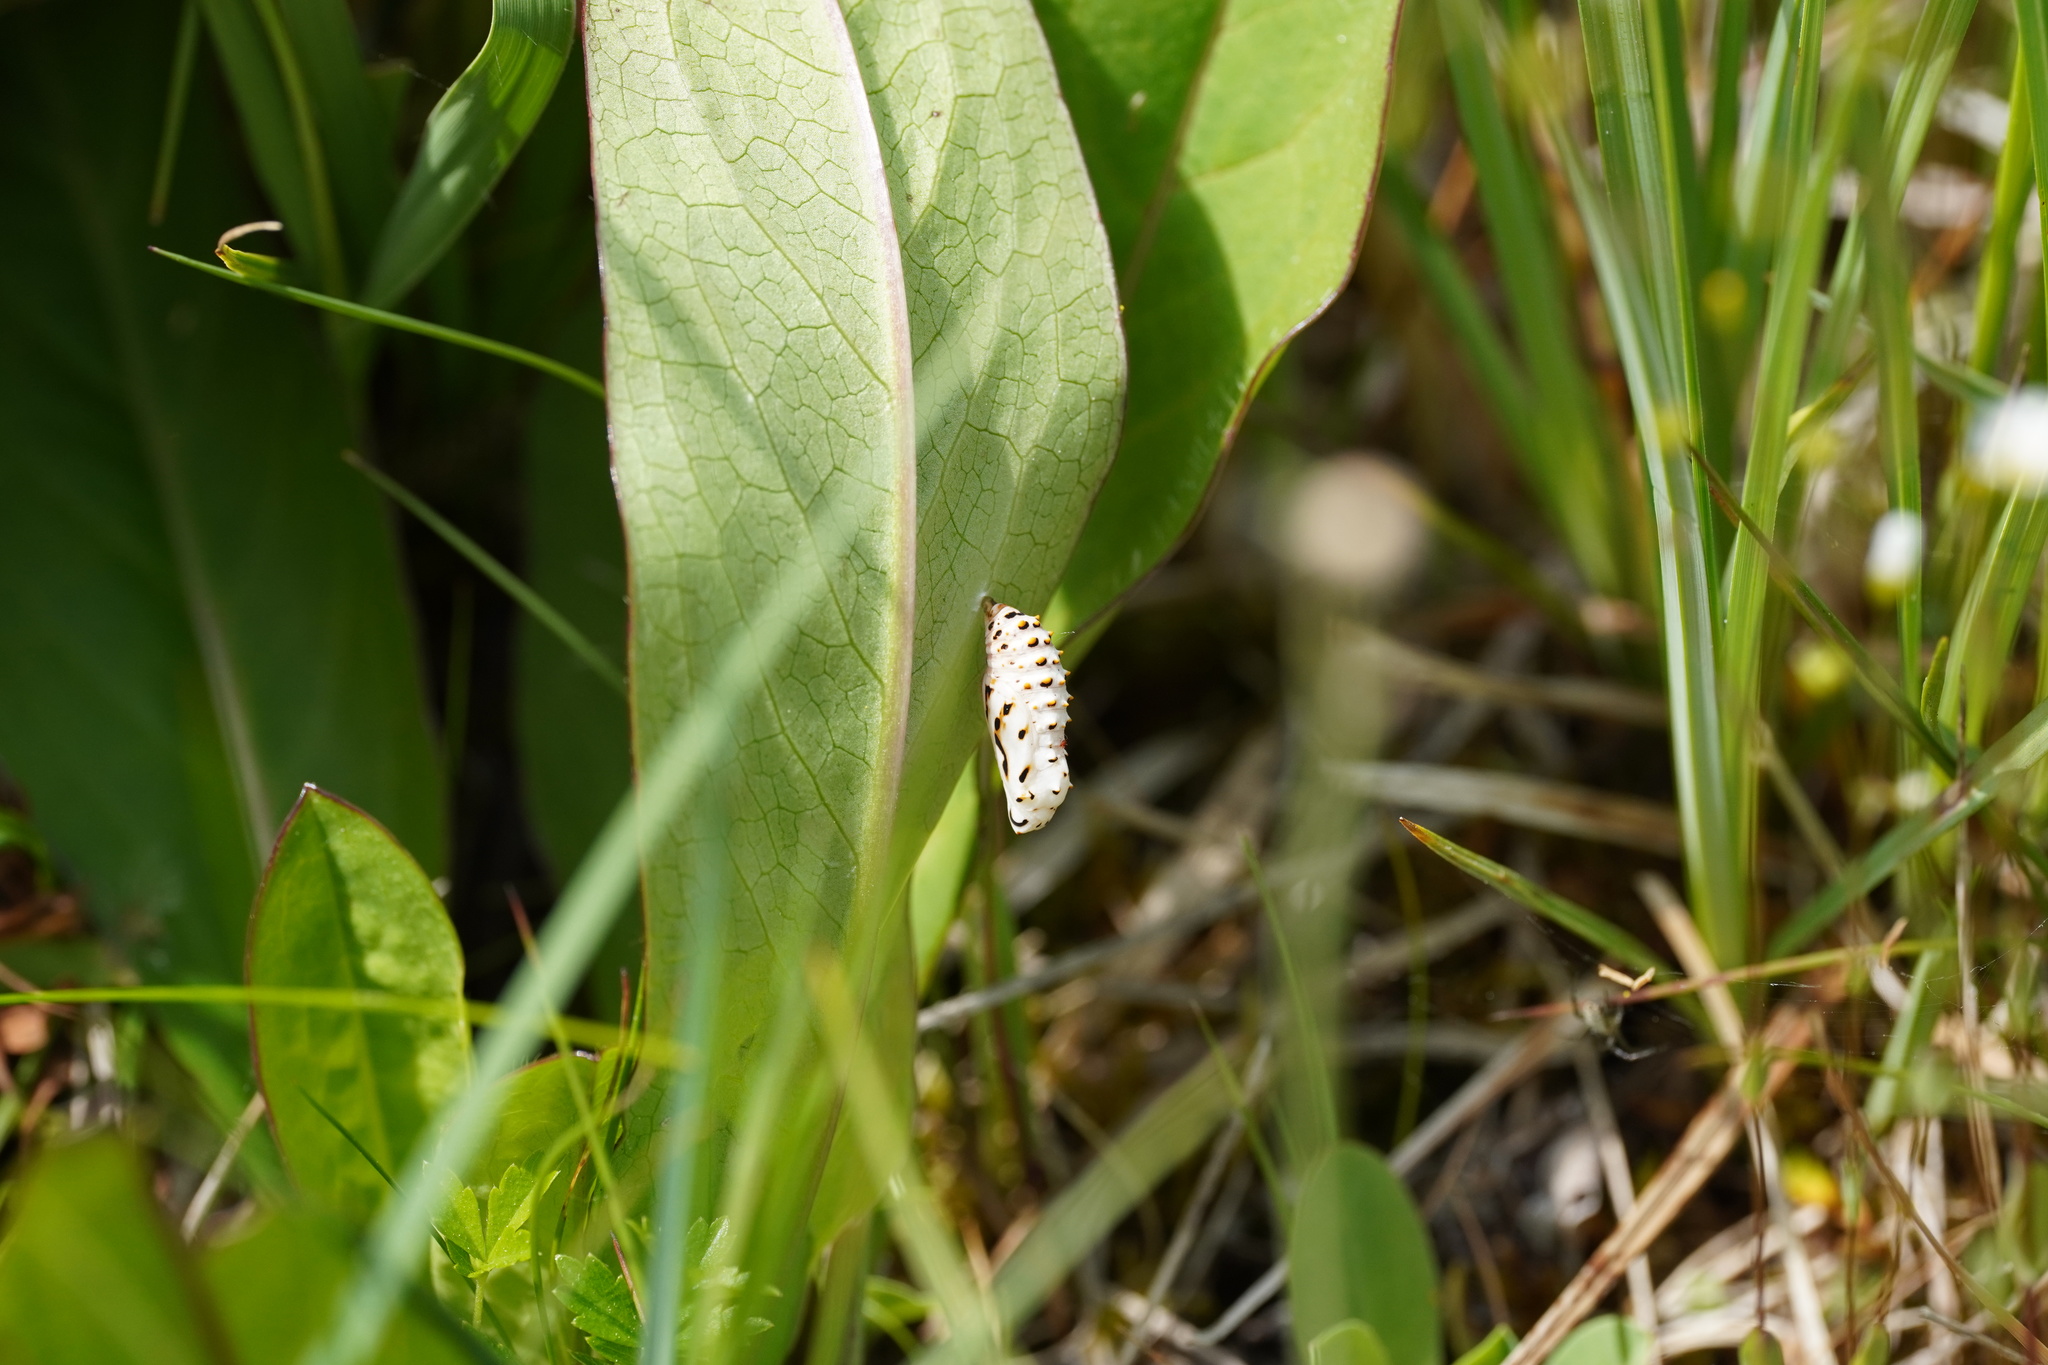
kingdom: Animalia
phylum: Arthropoda
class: Insecta
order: Lepidoptera
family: Nymphalidae
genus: Melitaea
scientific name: Melitaea diamina
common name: False heath fritillary
